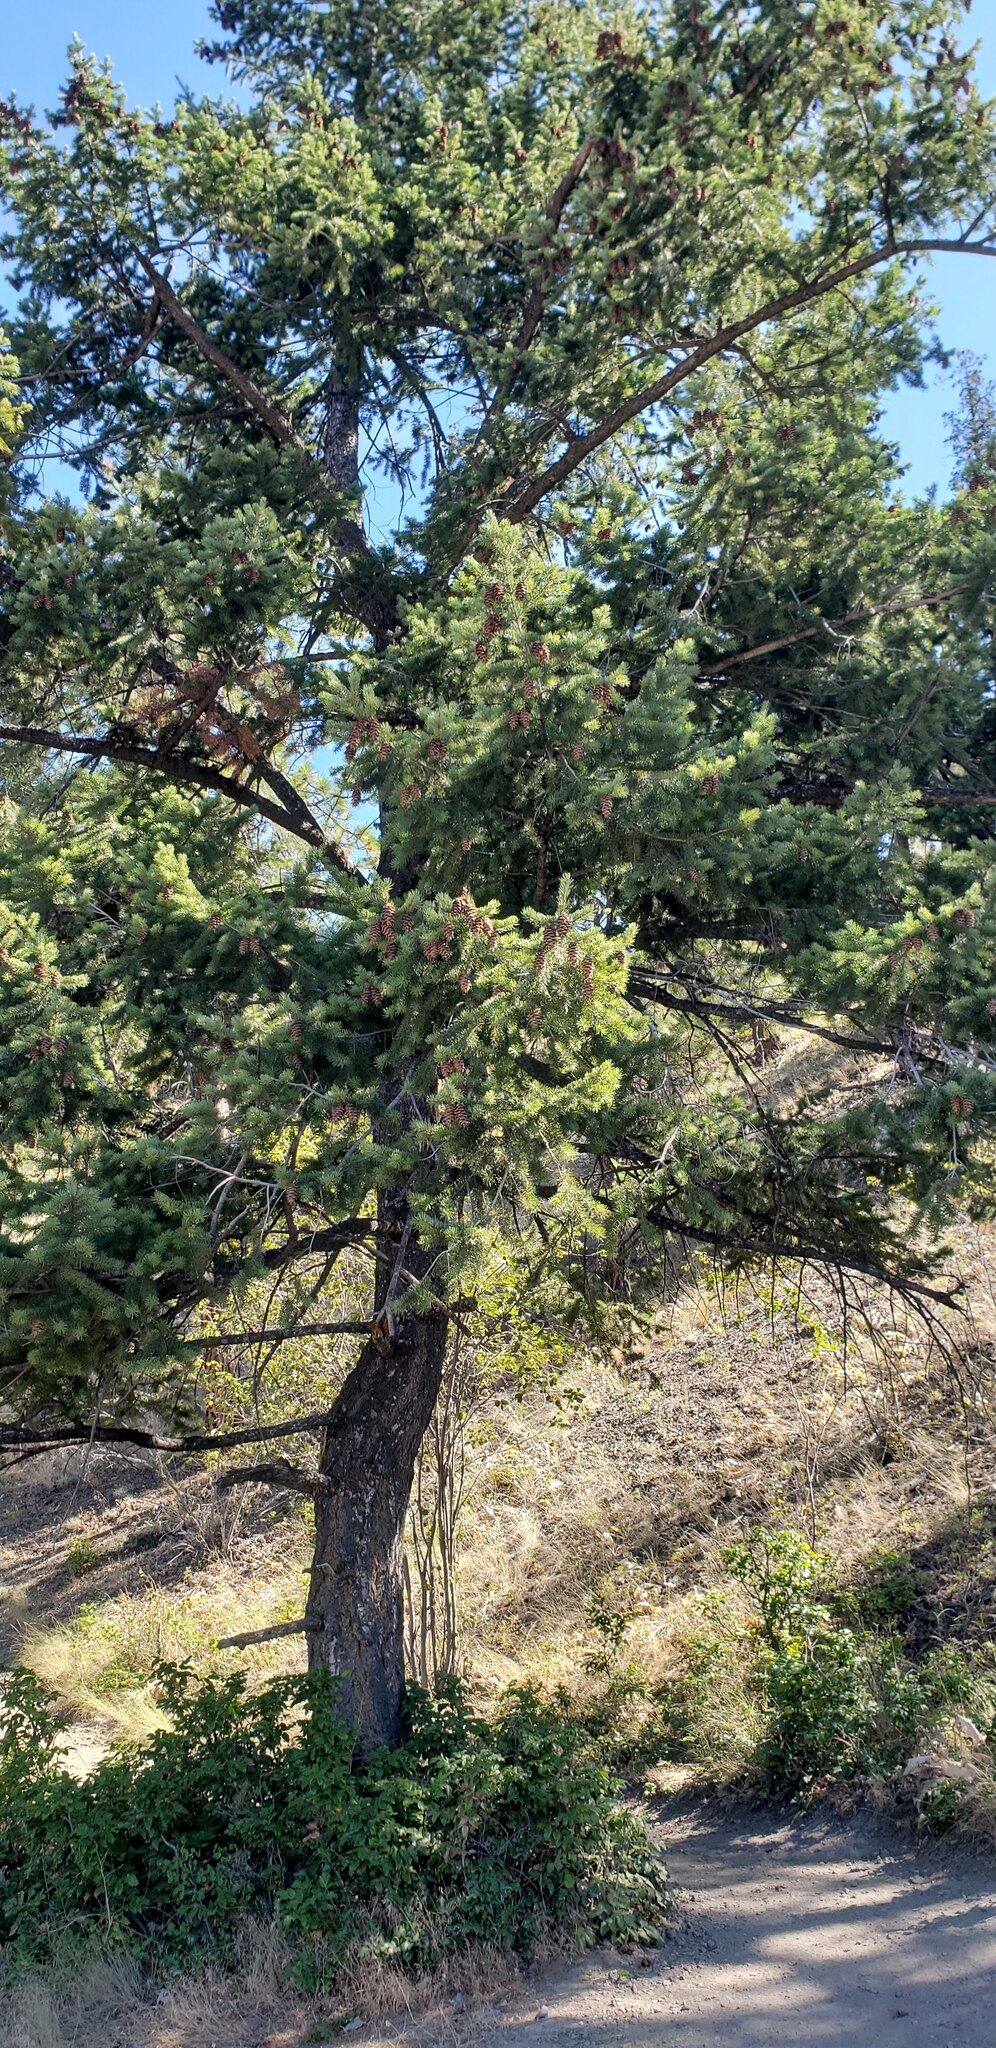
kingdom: Plantae
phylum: Tracheophyta
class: Pinopsida
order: Pinales
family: Pinaceae
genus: Pseudotsuga
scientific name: Pseudotsuga menziesii
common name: Douglas fir
